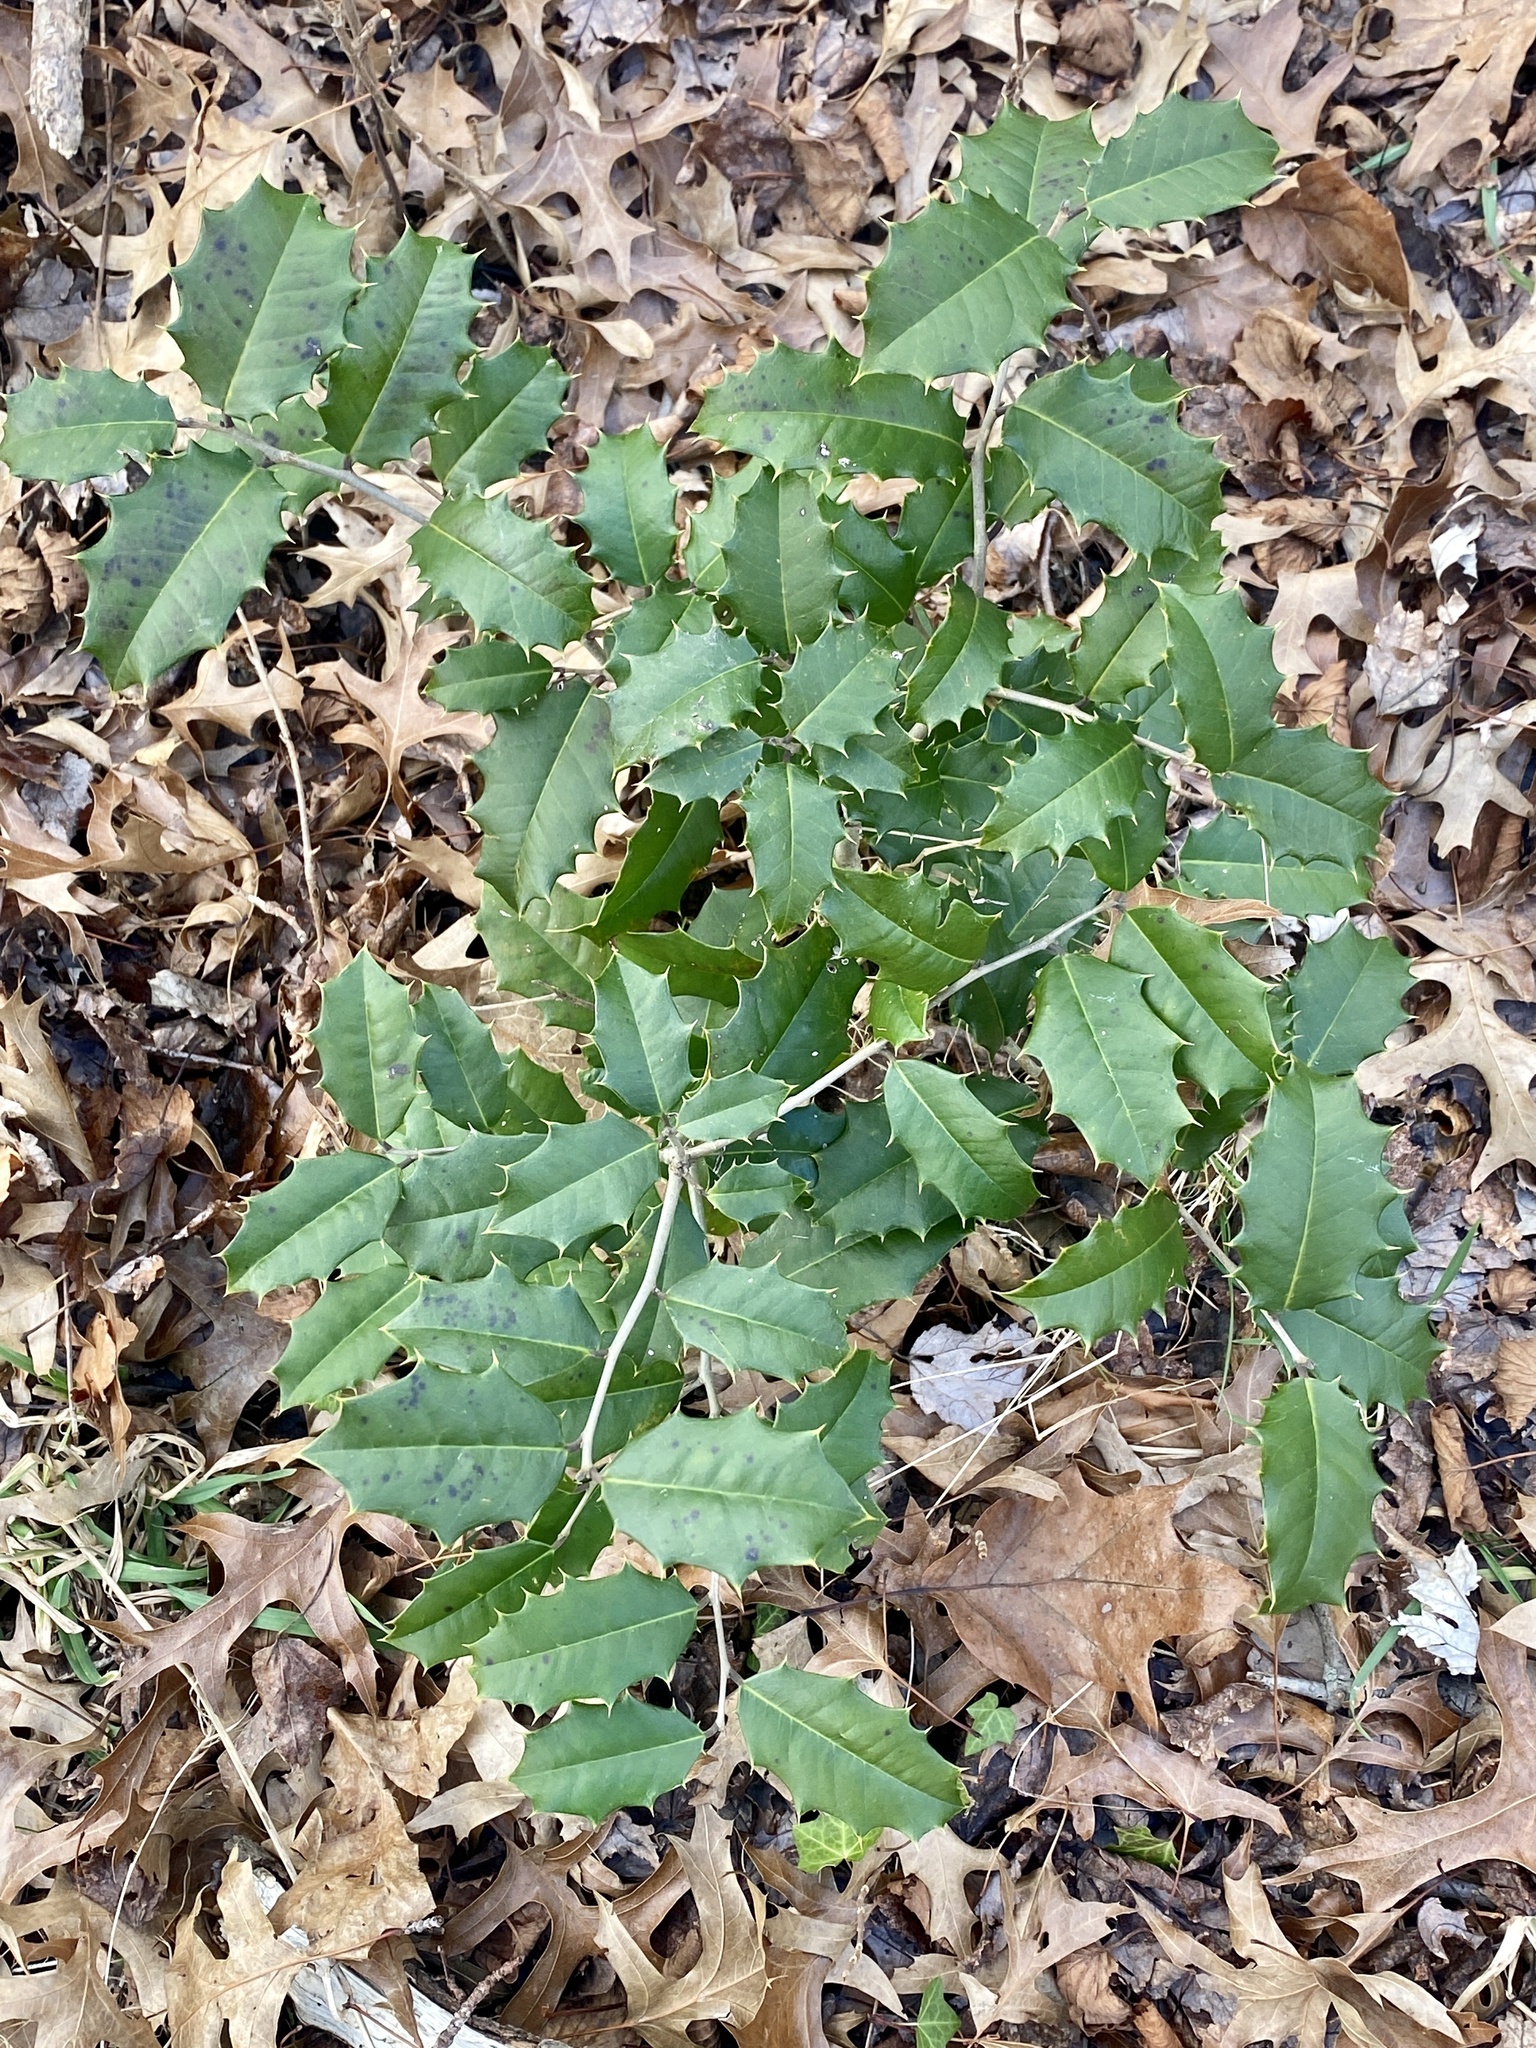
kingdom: Plantae
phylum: Tracheophyta
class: Magnoliopsida
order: Aquifoliales
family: Aquifoliaceae
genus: Ilex
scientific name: Ilex opaca
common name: American holly
